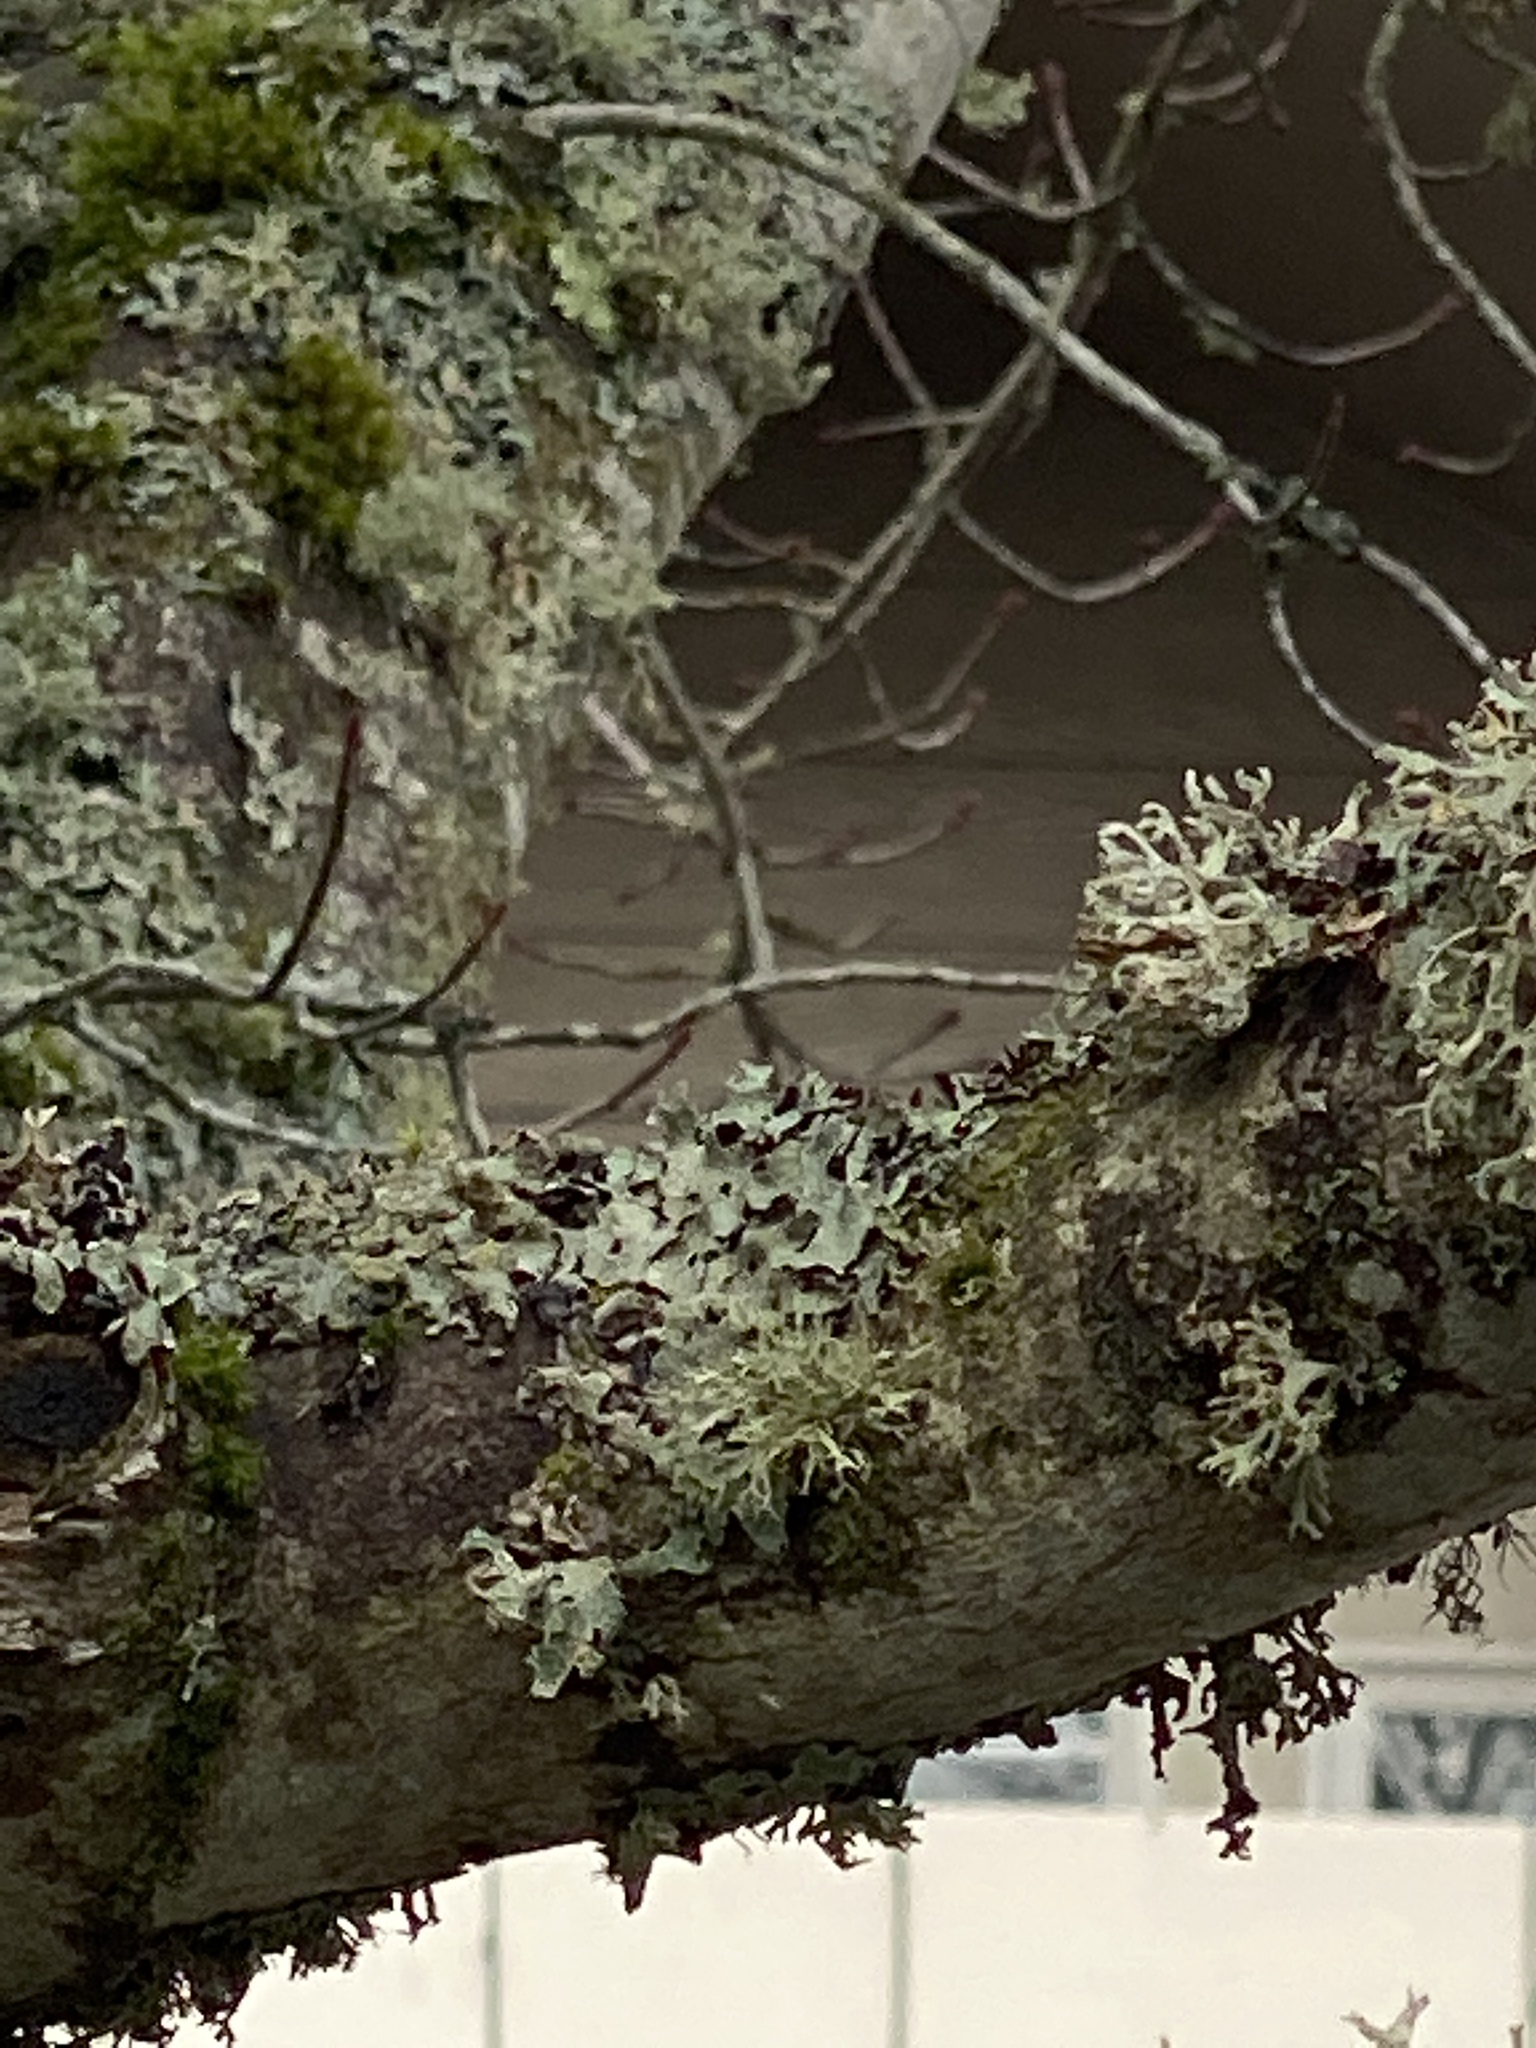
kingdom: Fungi
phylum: Ascomycota
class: Lecanoromycetes
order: Lecanorales
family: Parmeliaceae
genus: Evernia
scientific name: Evernia prunastri
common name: Oak moss
